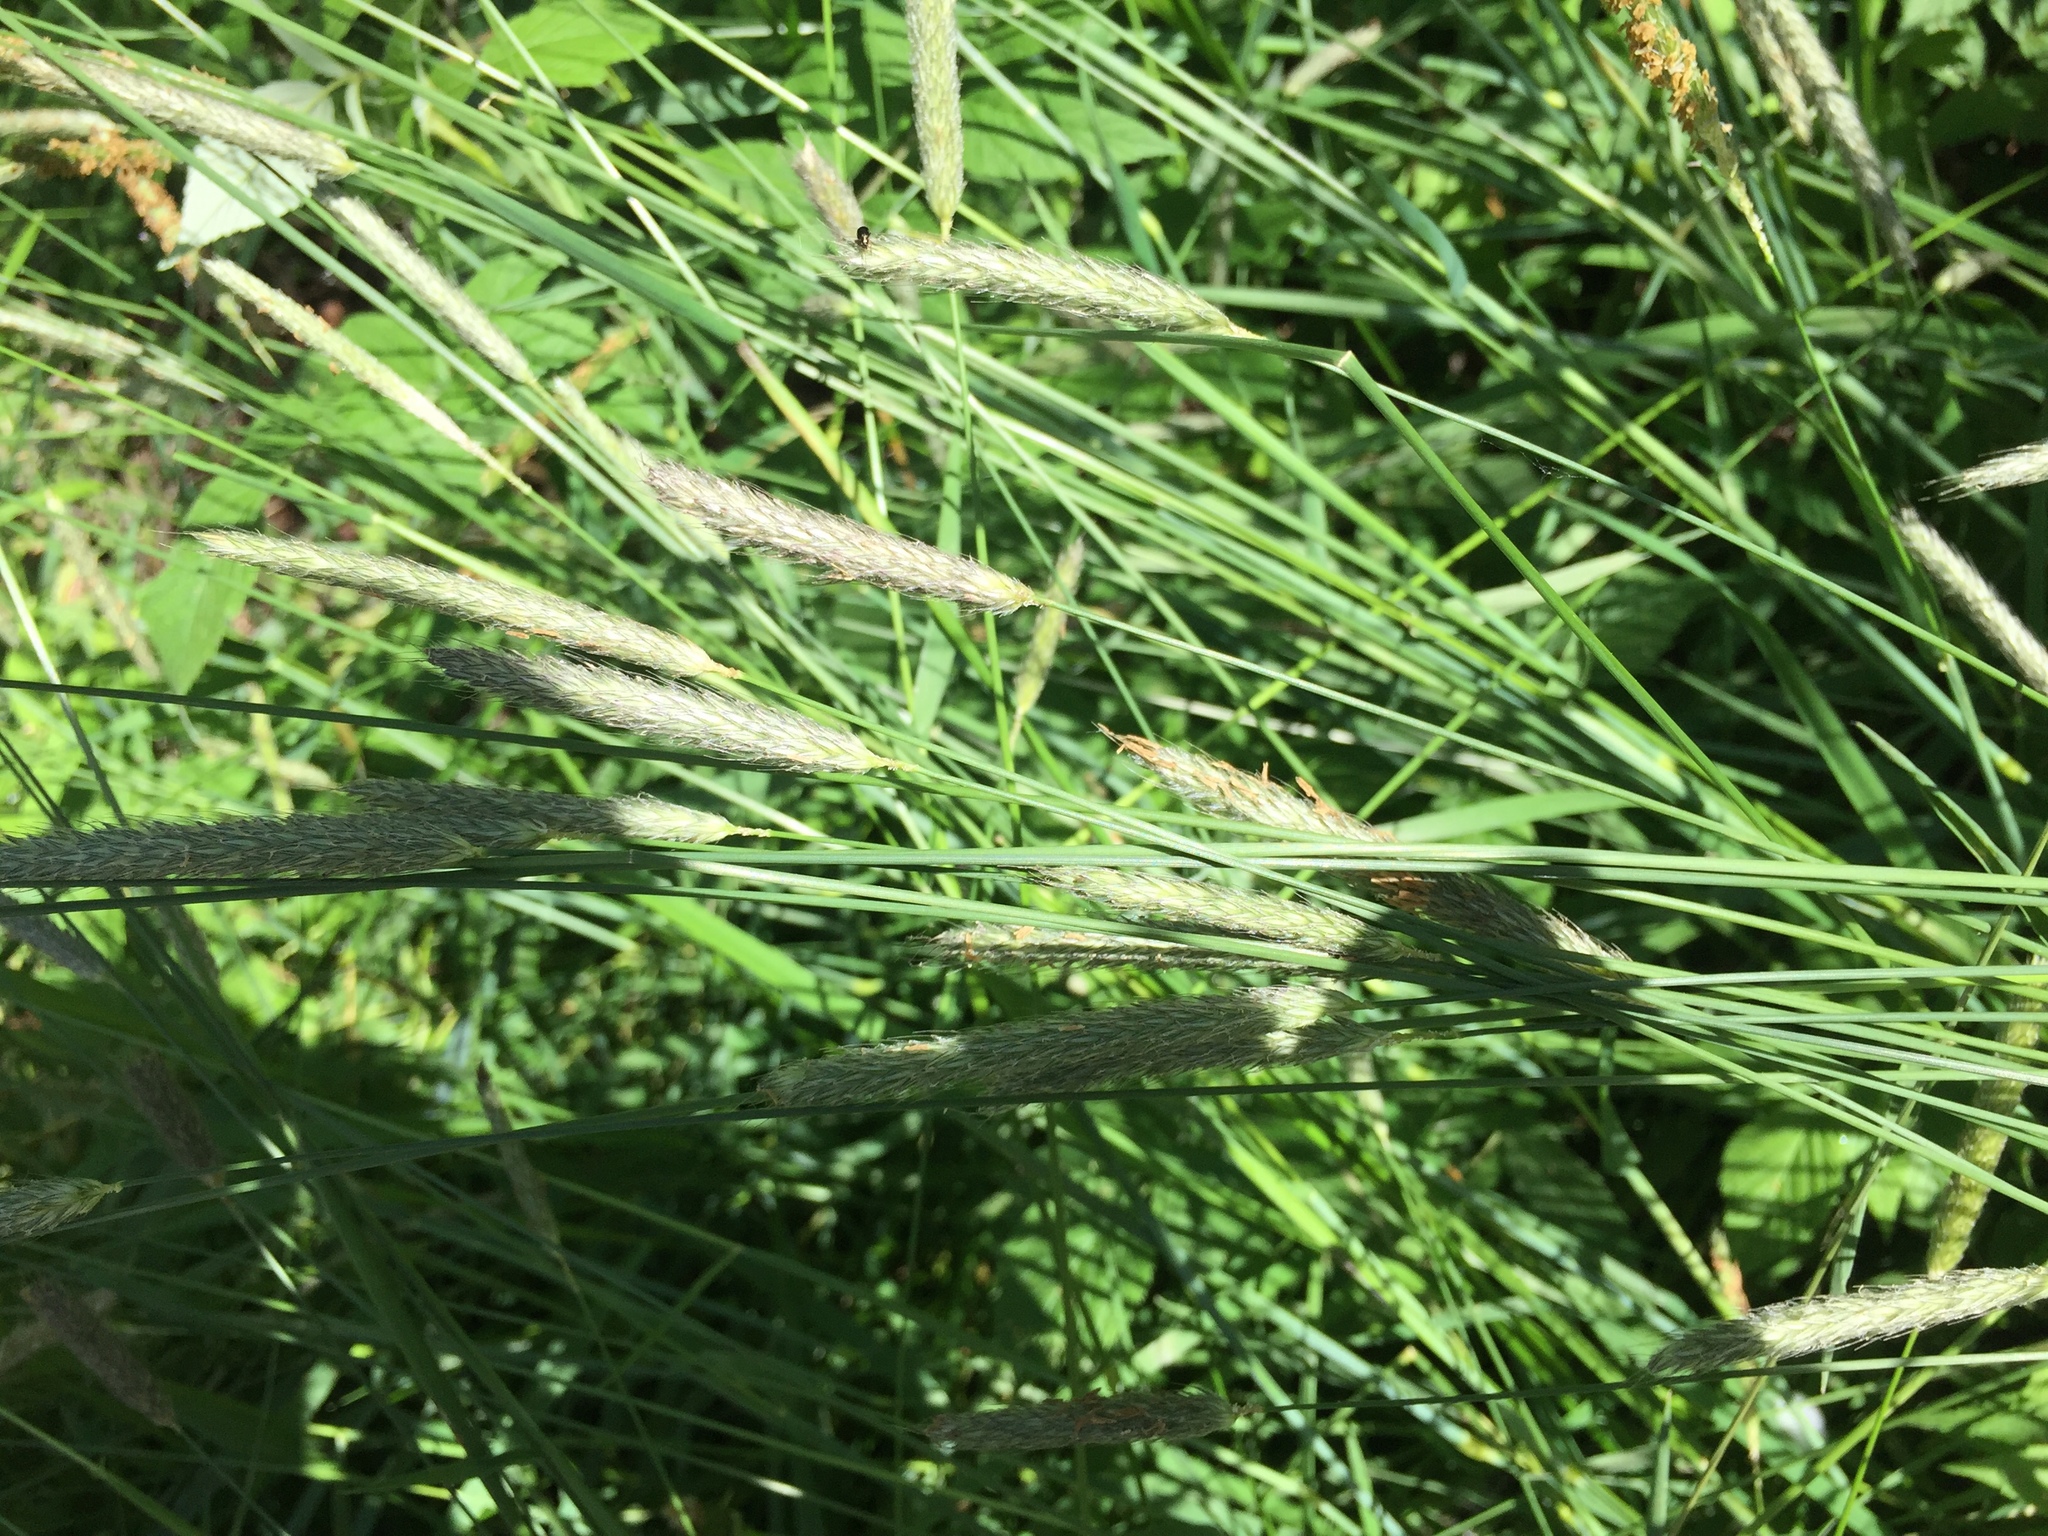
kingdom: Plantae
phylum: Tracheophyta
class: Liliopsida
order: Poales
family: Poaceae
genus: Alopecurus
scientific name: Alopecurus pratensis
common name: Meadow foxtail
